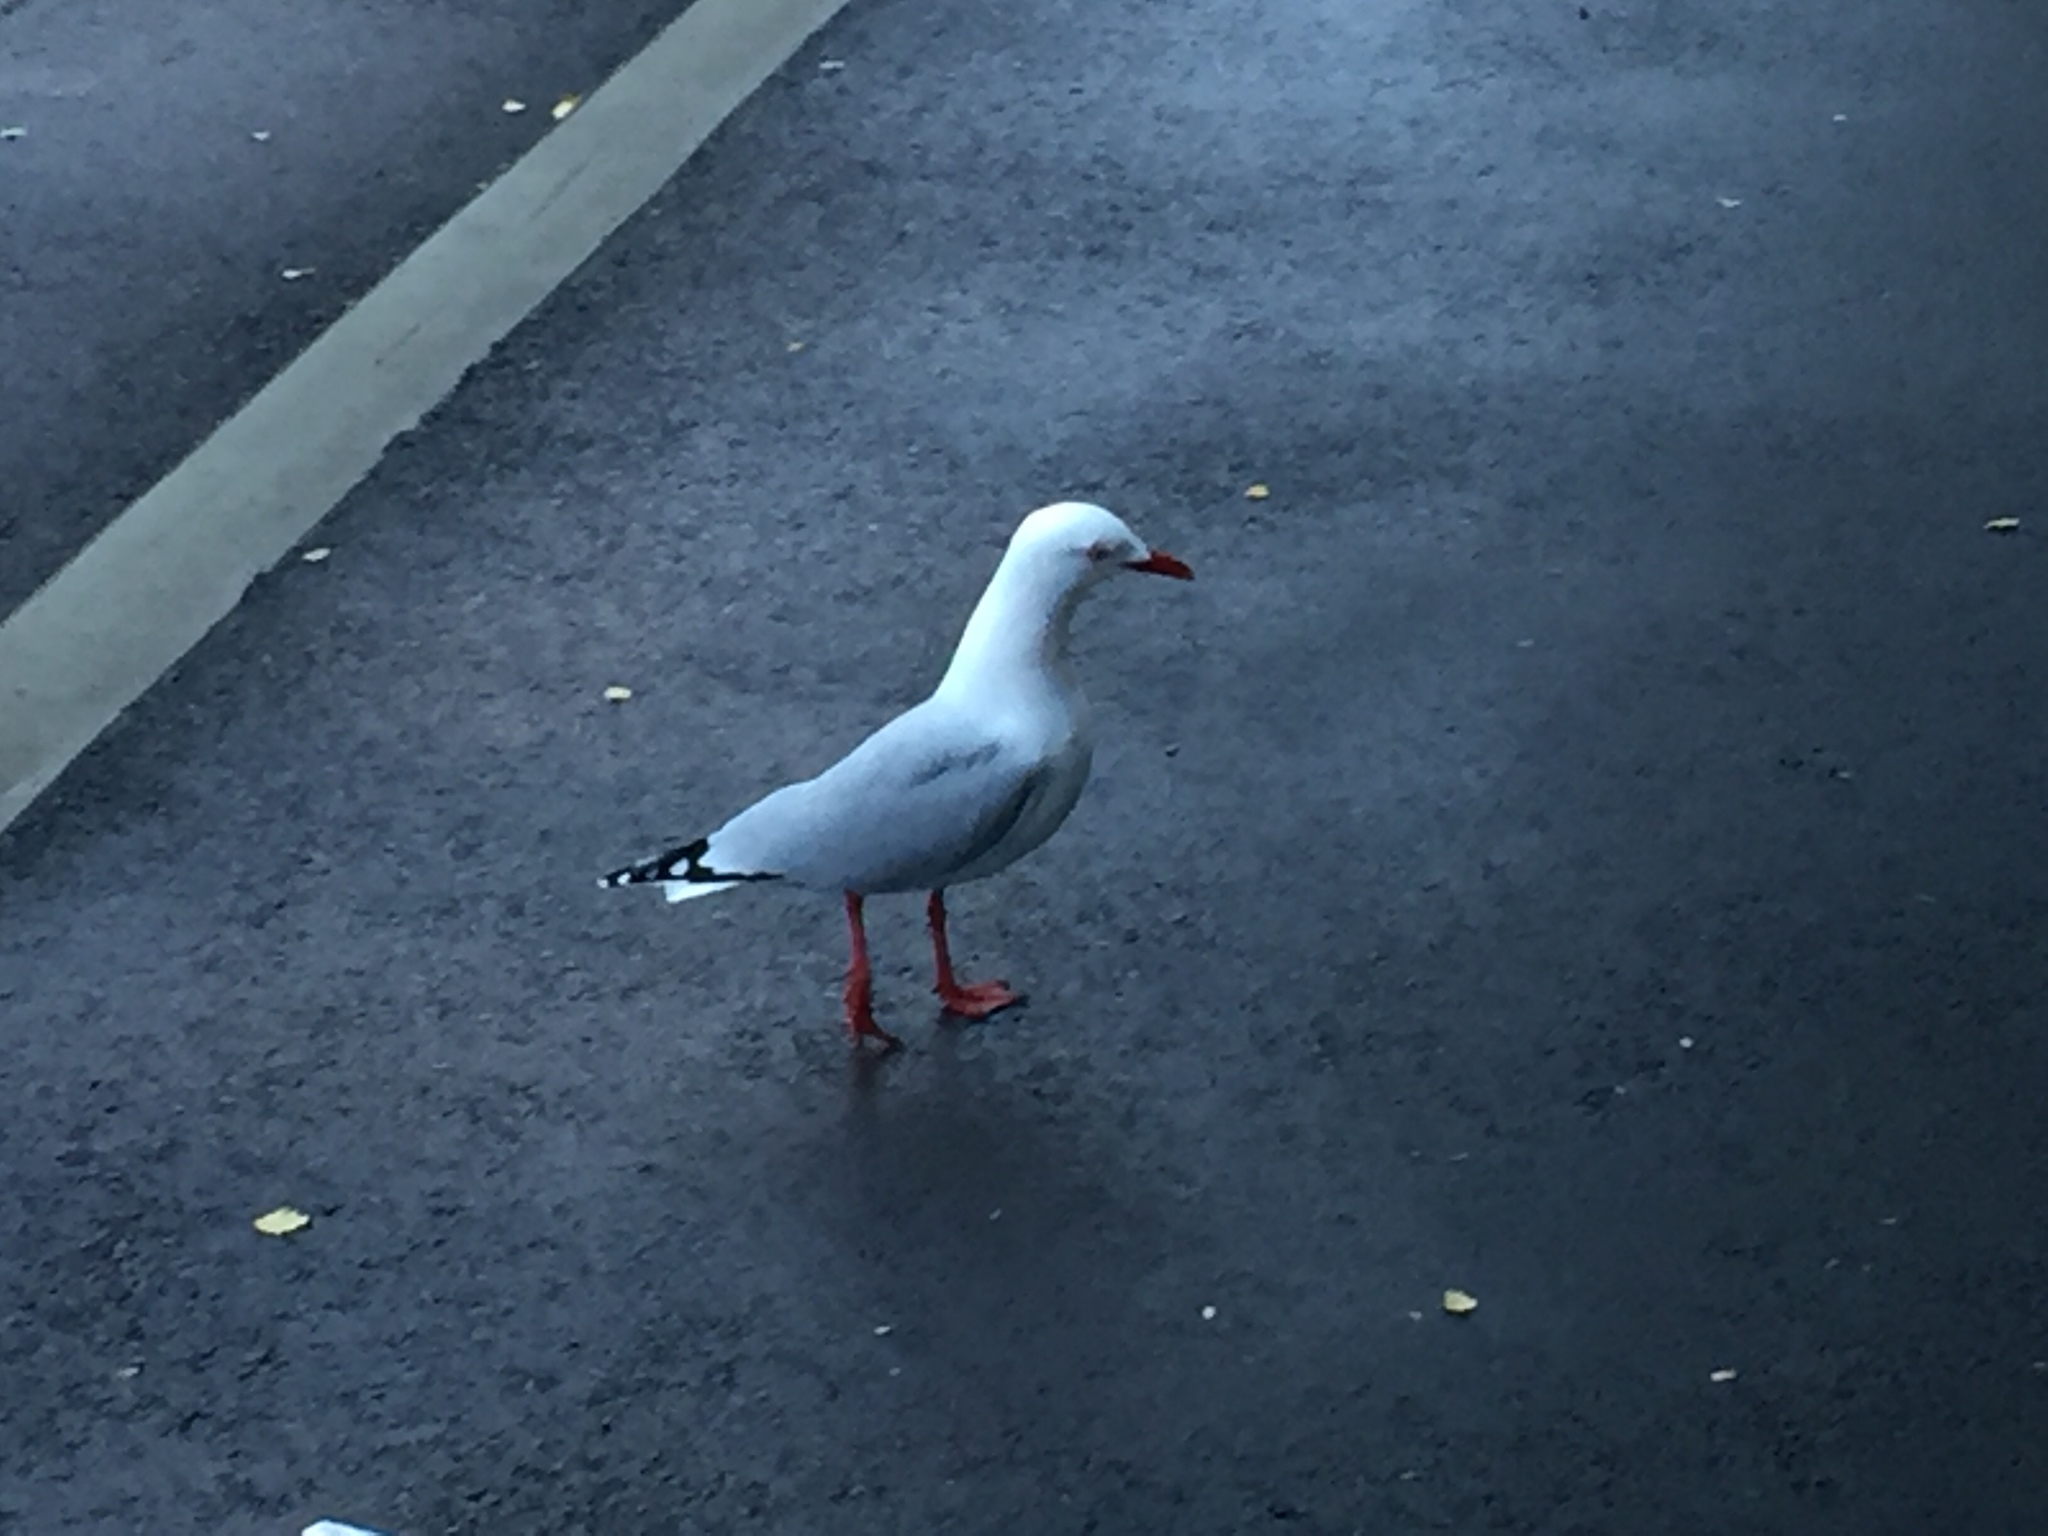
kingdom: Animalia
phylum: Chordata
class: Aves
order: Charadriiformes
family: Laridae
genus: Chroicocephalus
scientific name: Chroicocephalus novaehollandiae
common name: Silver gull
